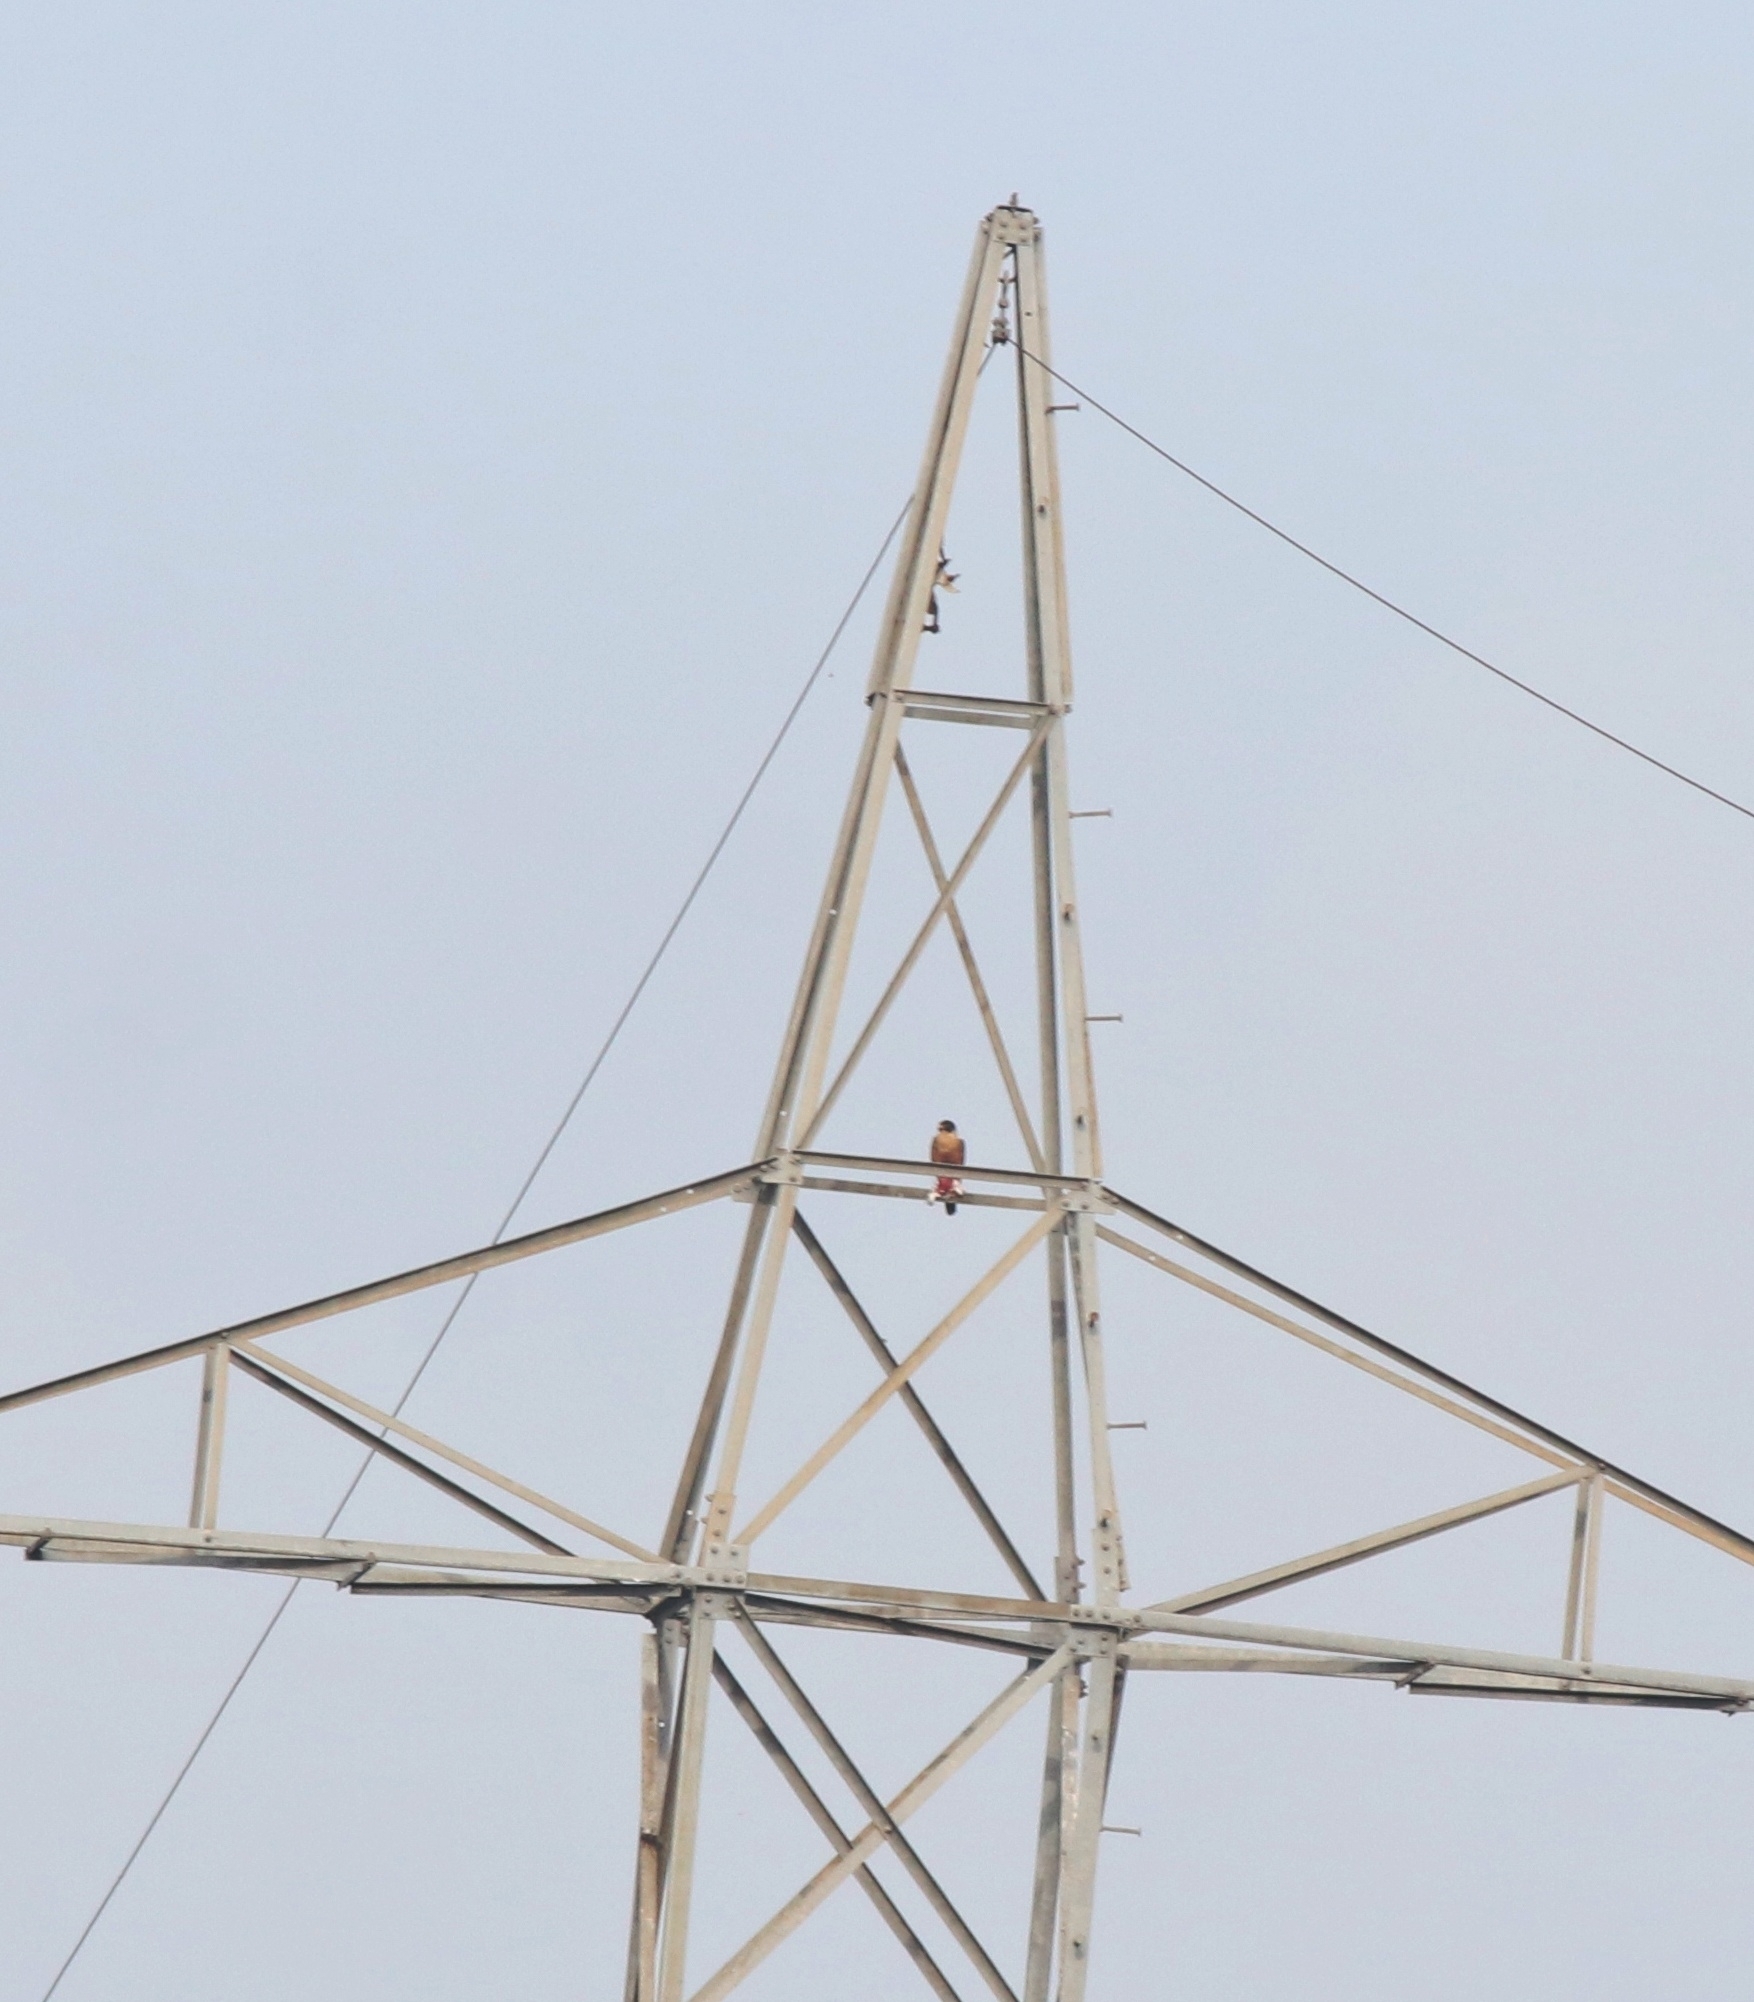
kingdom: Animalia
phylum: Chordata
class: Aves
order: Falconiformes
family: Falconidae
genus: Falco
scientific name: Falco peregrinus
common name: Peregrine falcon
